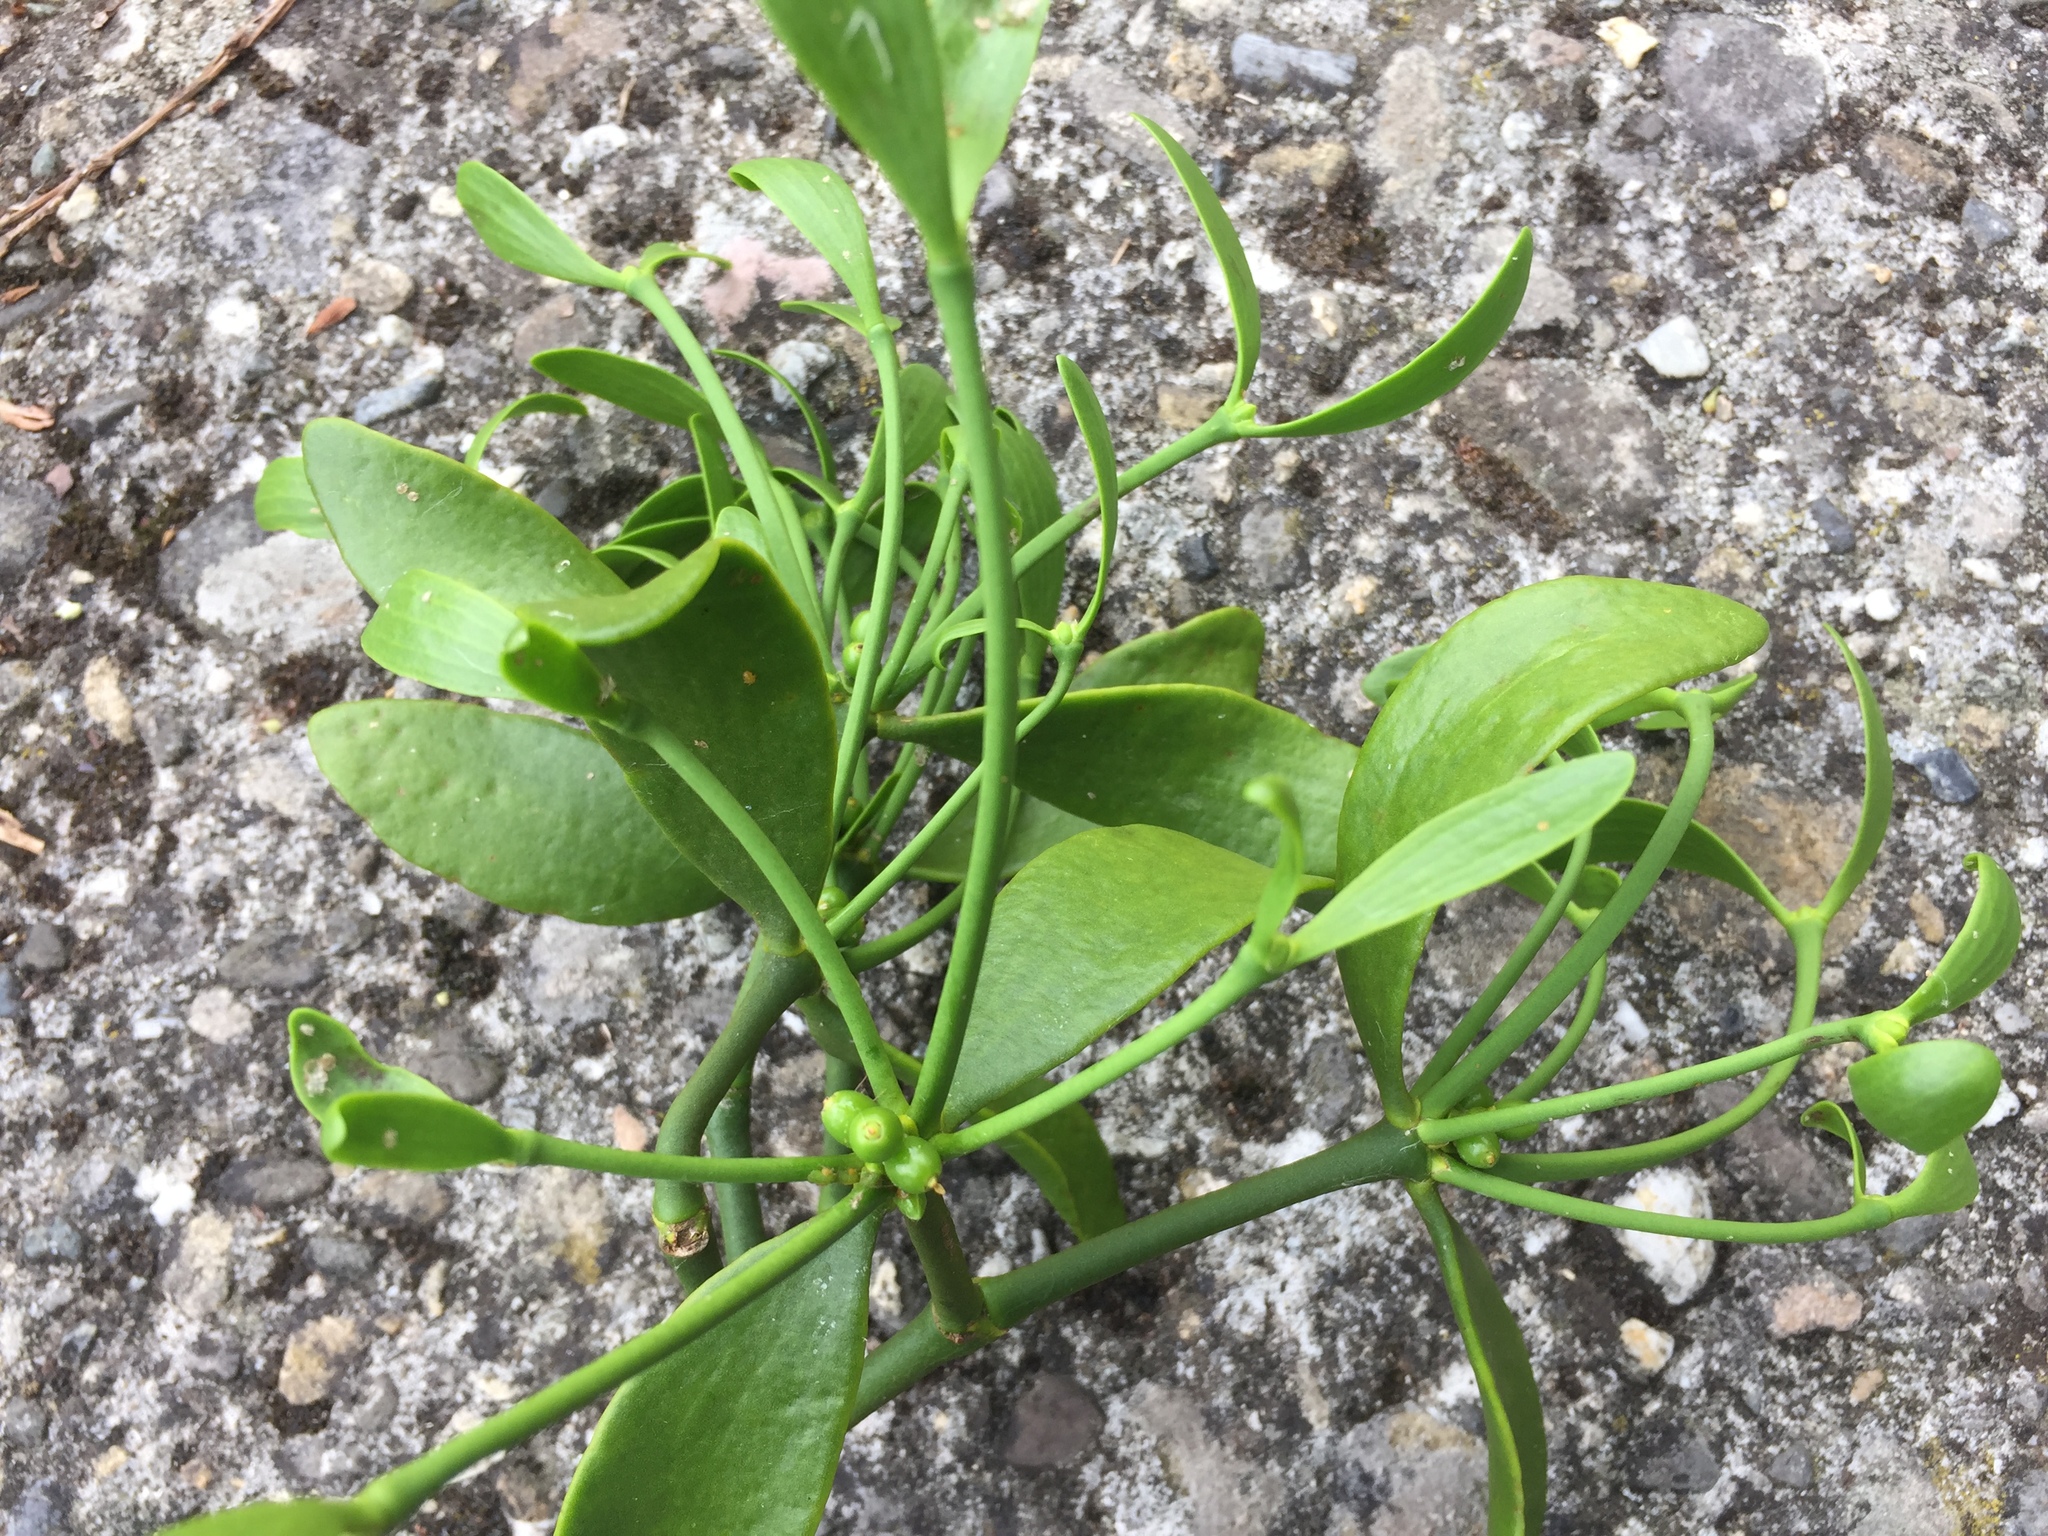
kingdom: Plantae
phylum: Tracheophyta
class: Magnoliopsida
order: Santalales
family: Viscaceae
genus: Viscum
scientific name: Viscum album
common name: Mistletoe
